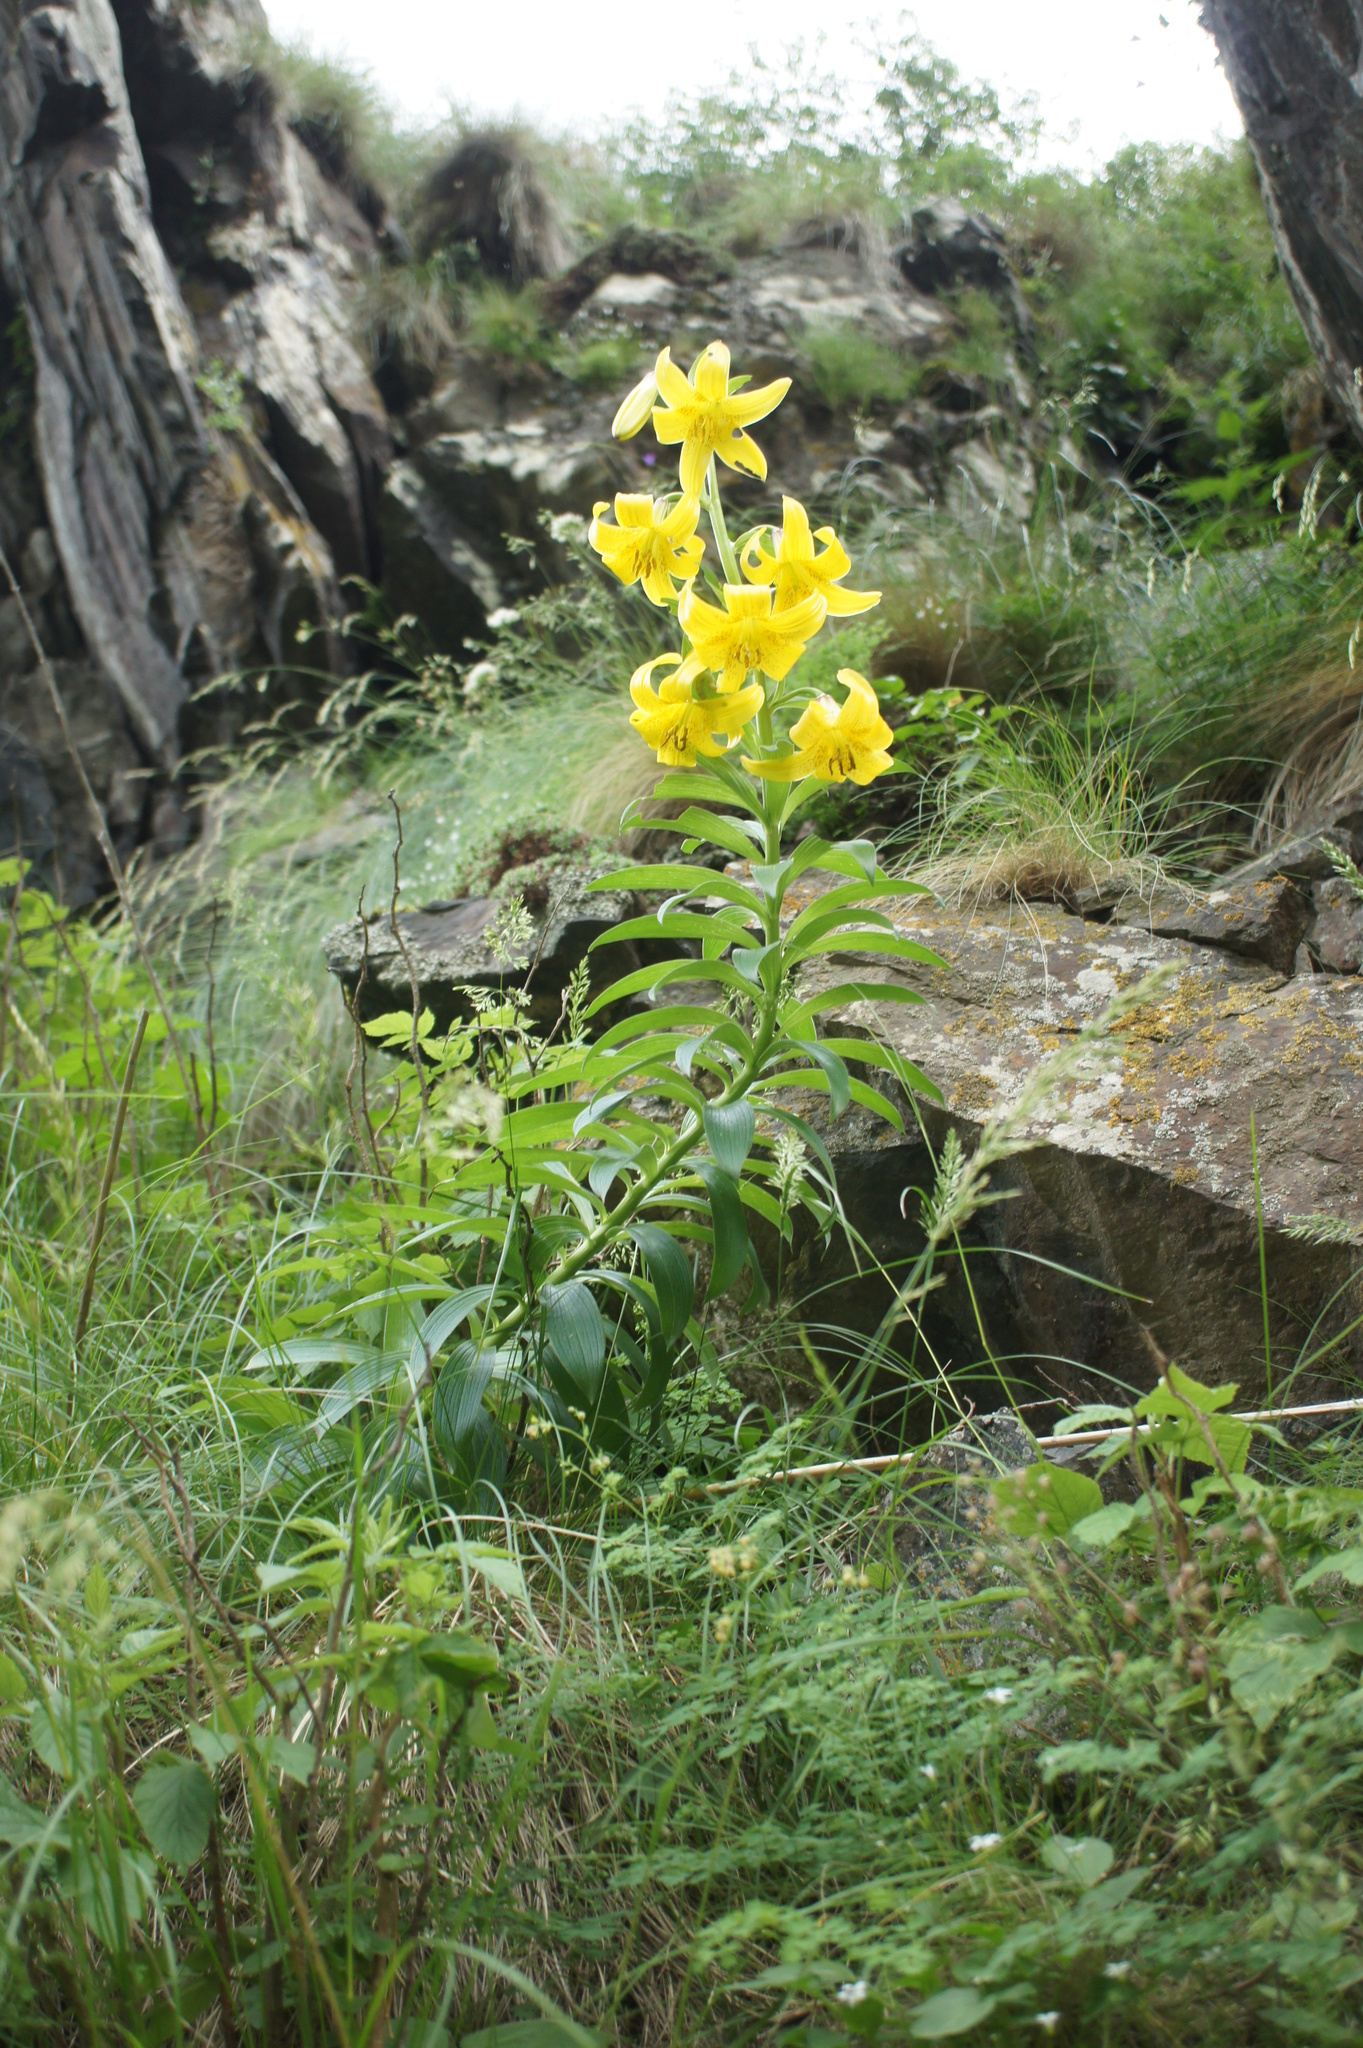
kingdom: Plantae
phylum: Tracheophyta
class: Liliopsida
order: Liliales
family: Liliaceae
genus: Lilium
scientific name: Lilium monadelphum
